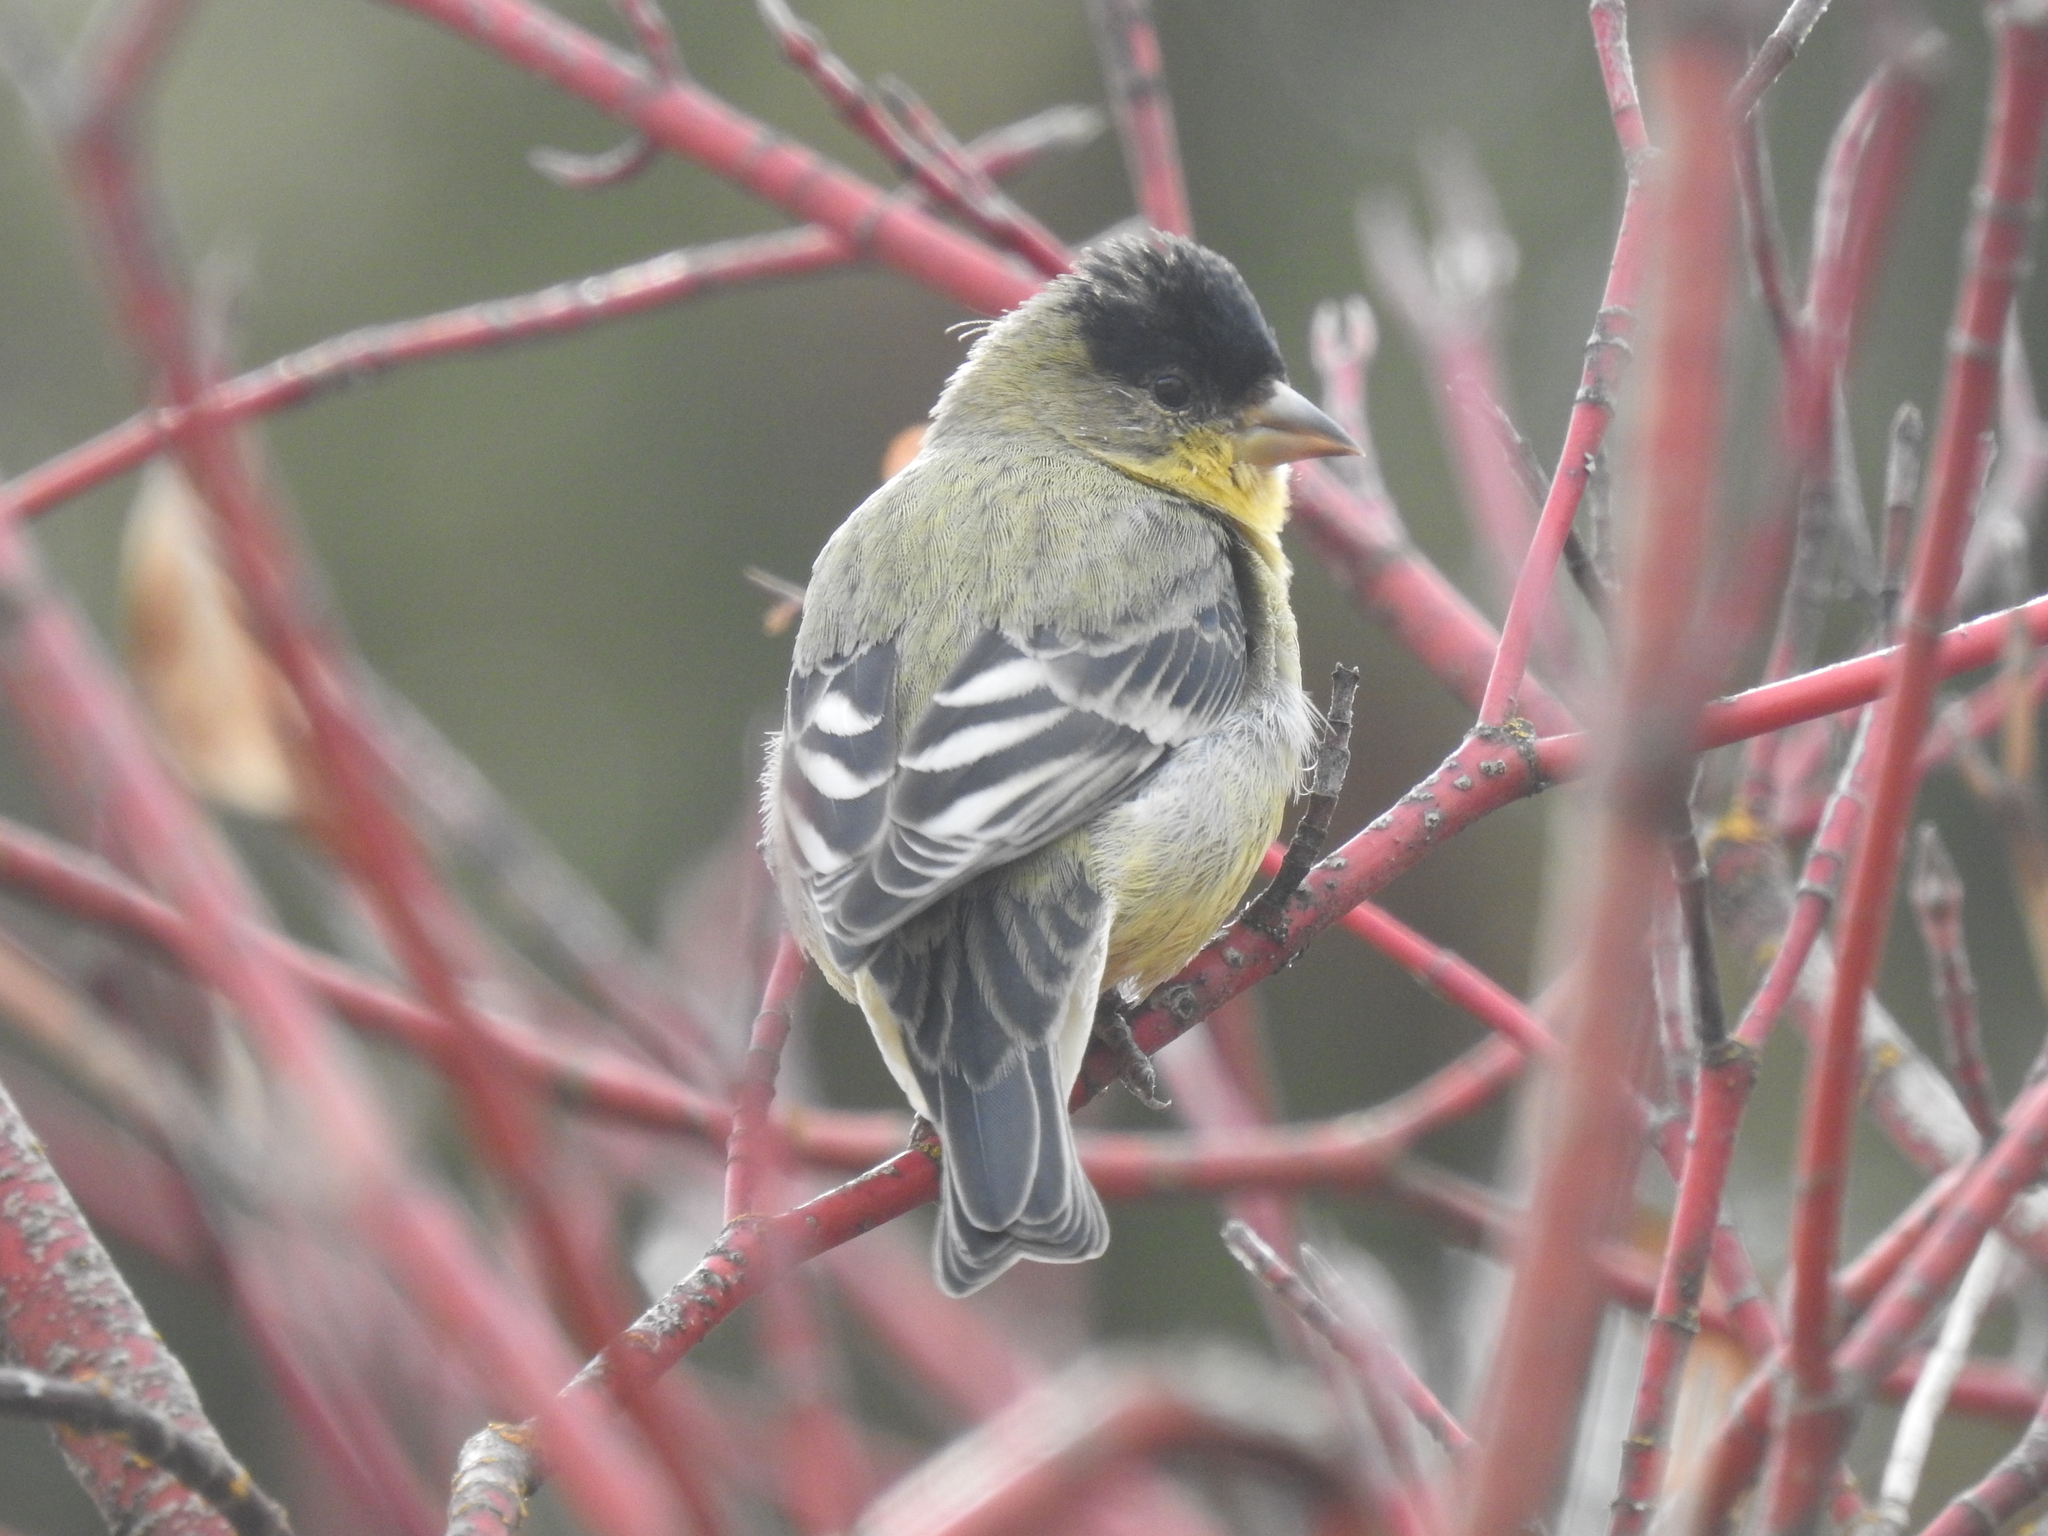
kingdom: Animalia
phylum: Chordata
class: Aves
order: Passeriformes
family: Fringillidae
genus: Spinus
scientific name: Spinus psaltria
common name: Lesser goldfinch
